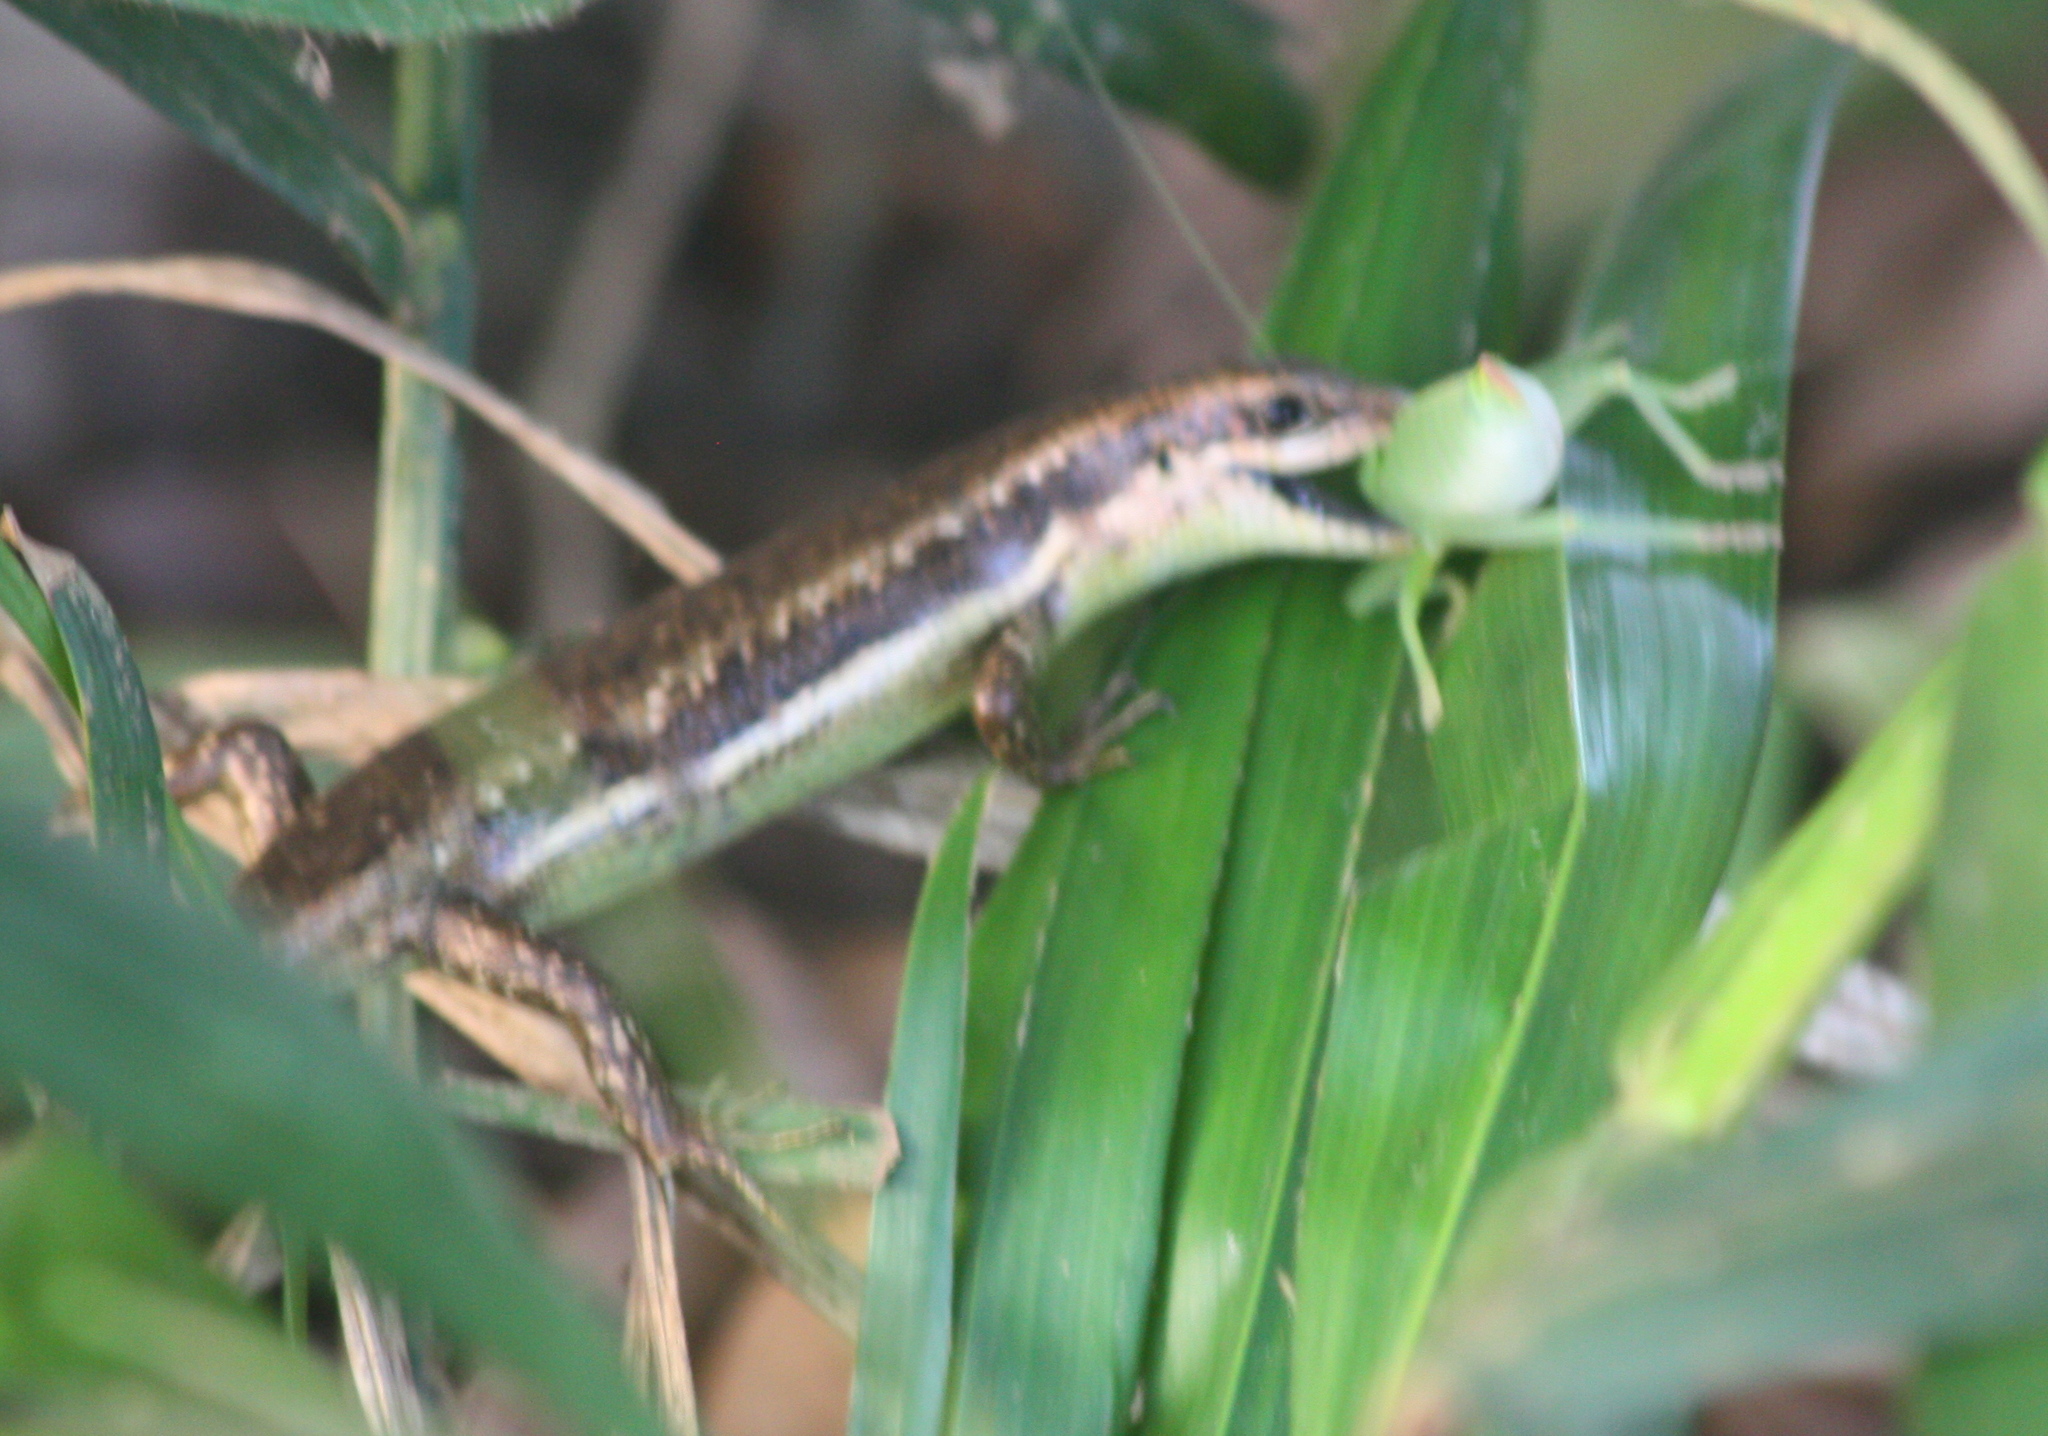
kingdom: Animalia
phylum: Chordata
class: Squamata
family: Scincidae
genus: Trachylepis
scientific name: Trachylepis affinis
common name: Senegal mabuya
